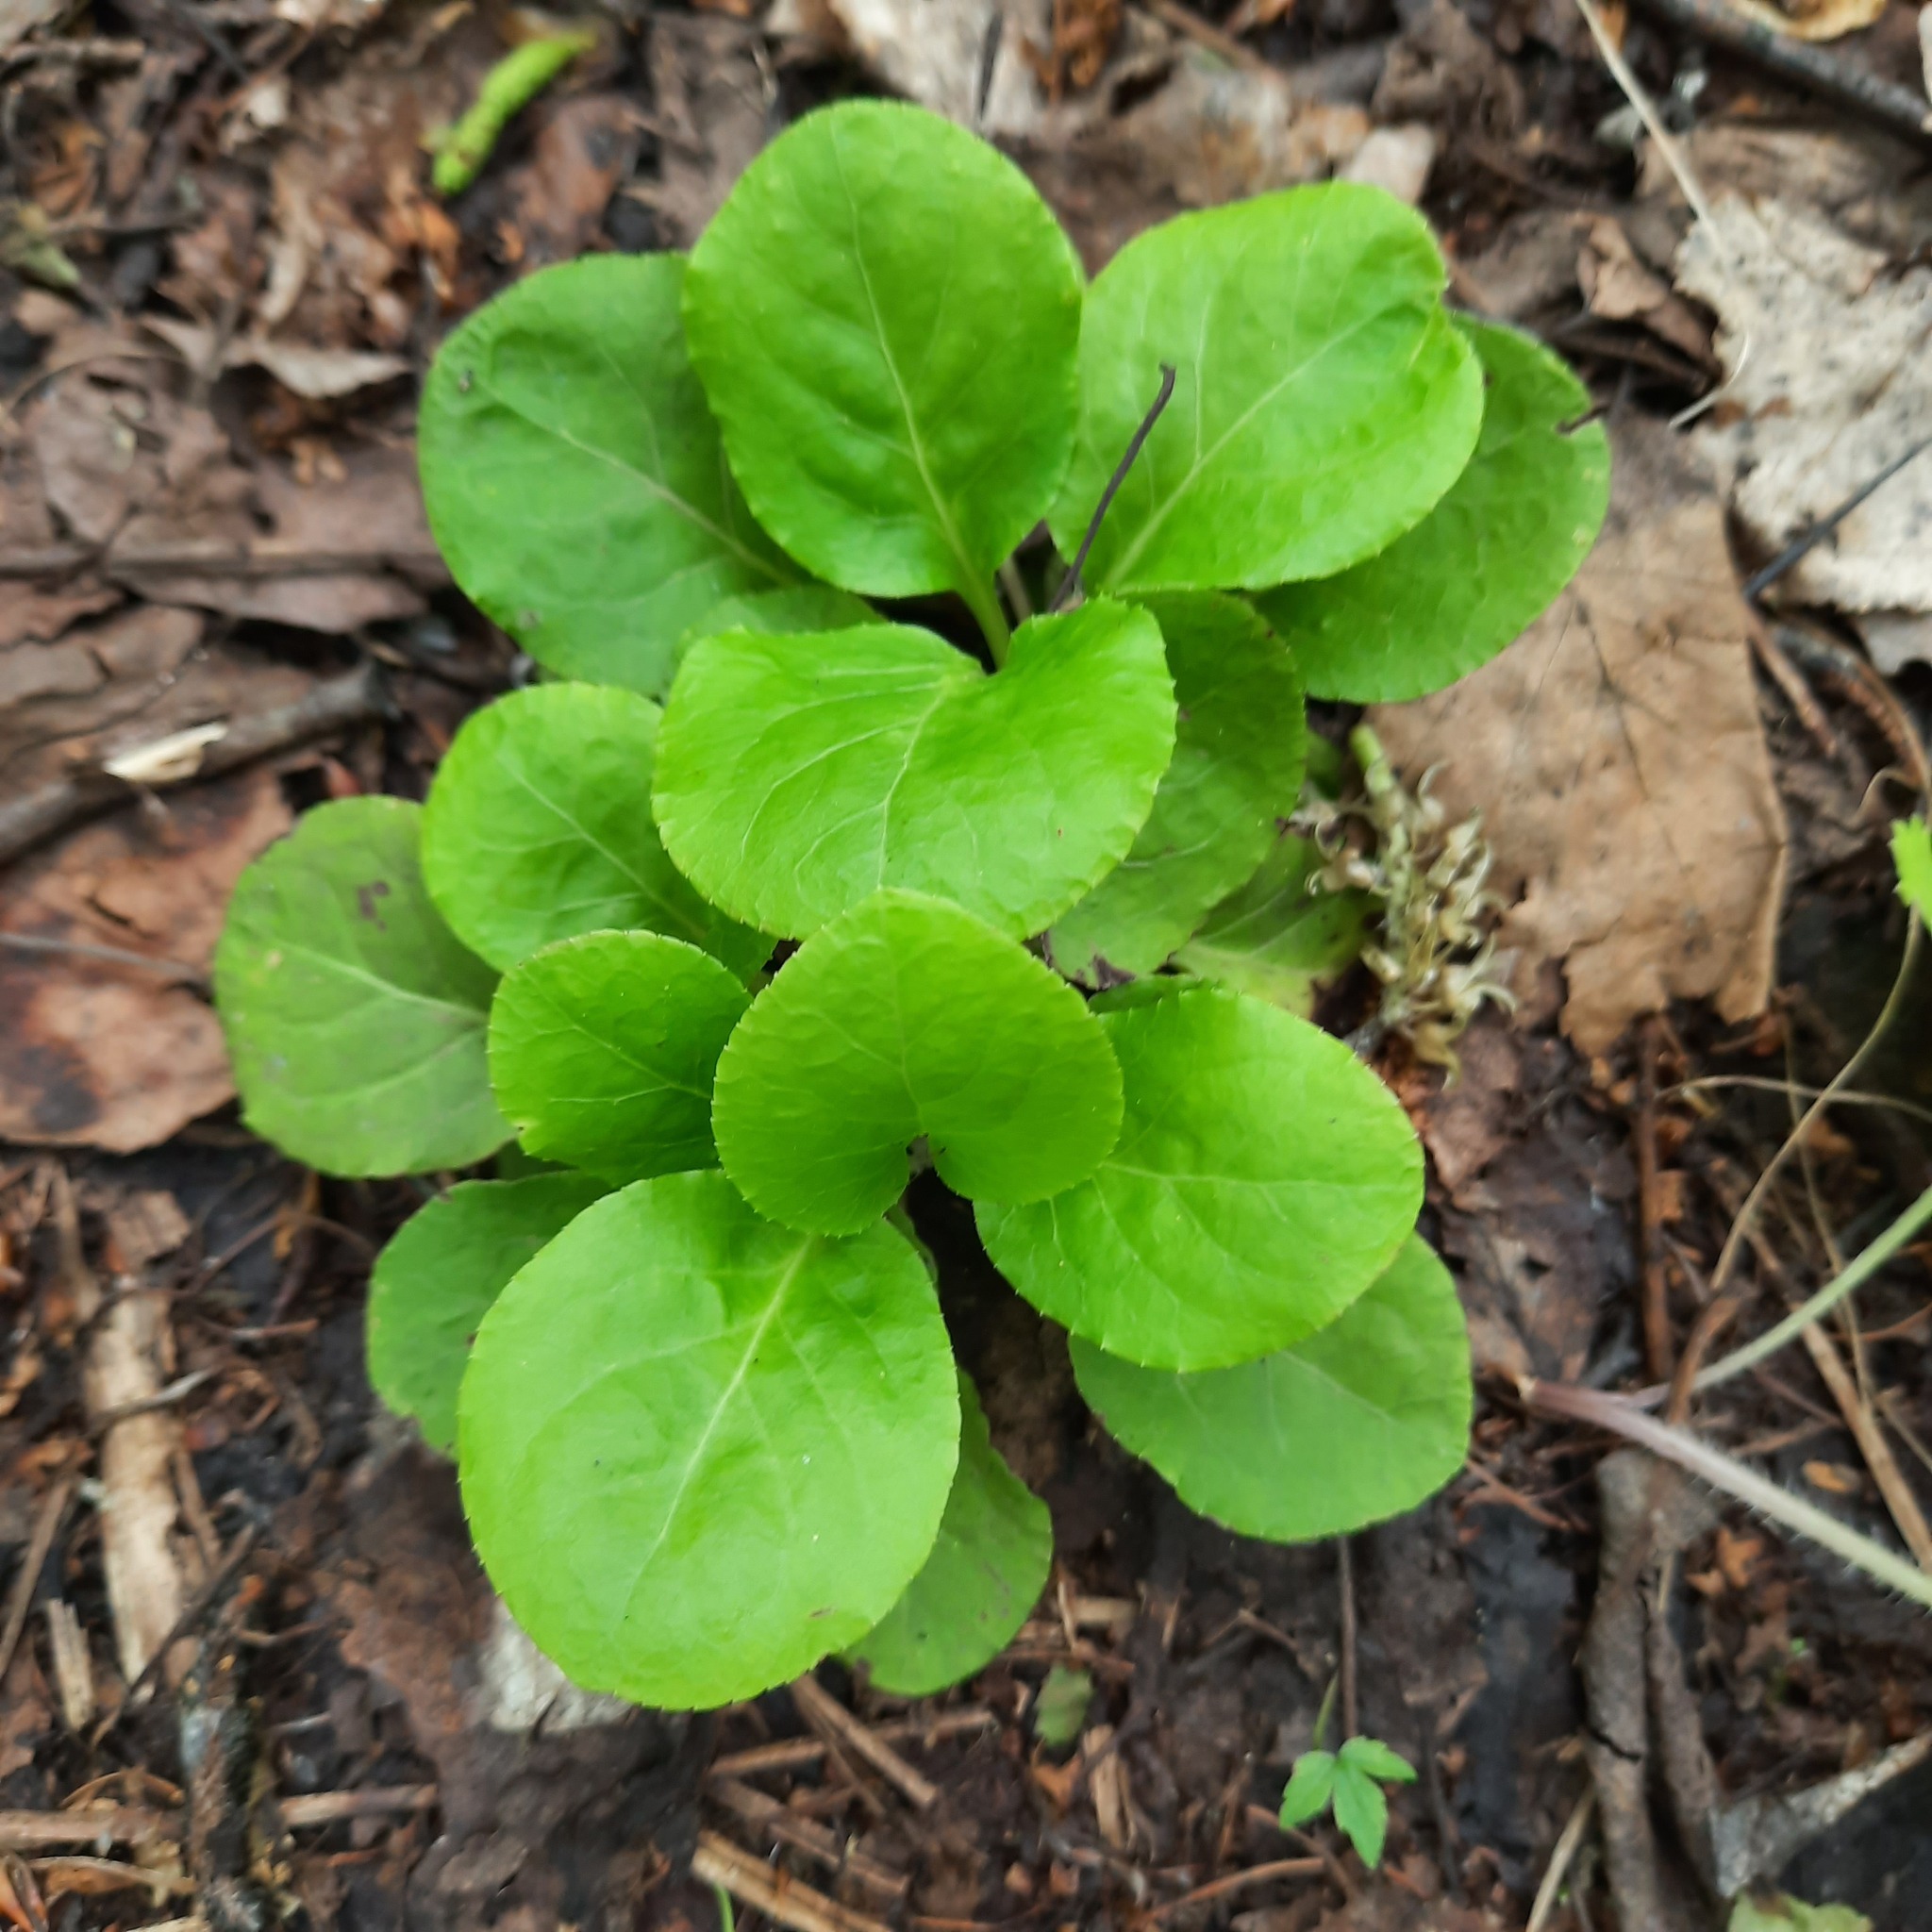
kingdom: Plantae
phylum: Tracheophyta
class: Magnoliopsida
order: Ericales
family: Ericaceae
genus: Pyrola
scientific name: Pyrola minor
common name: Common wintergreen
